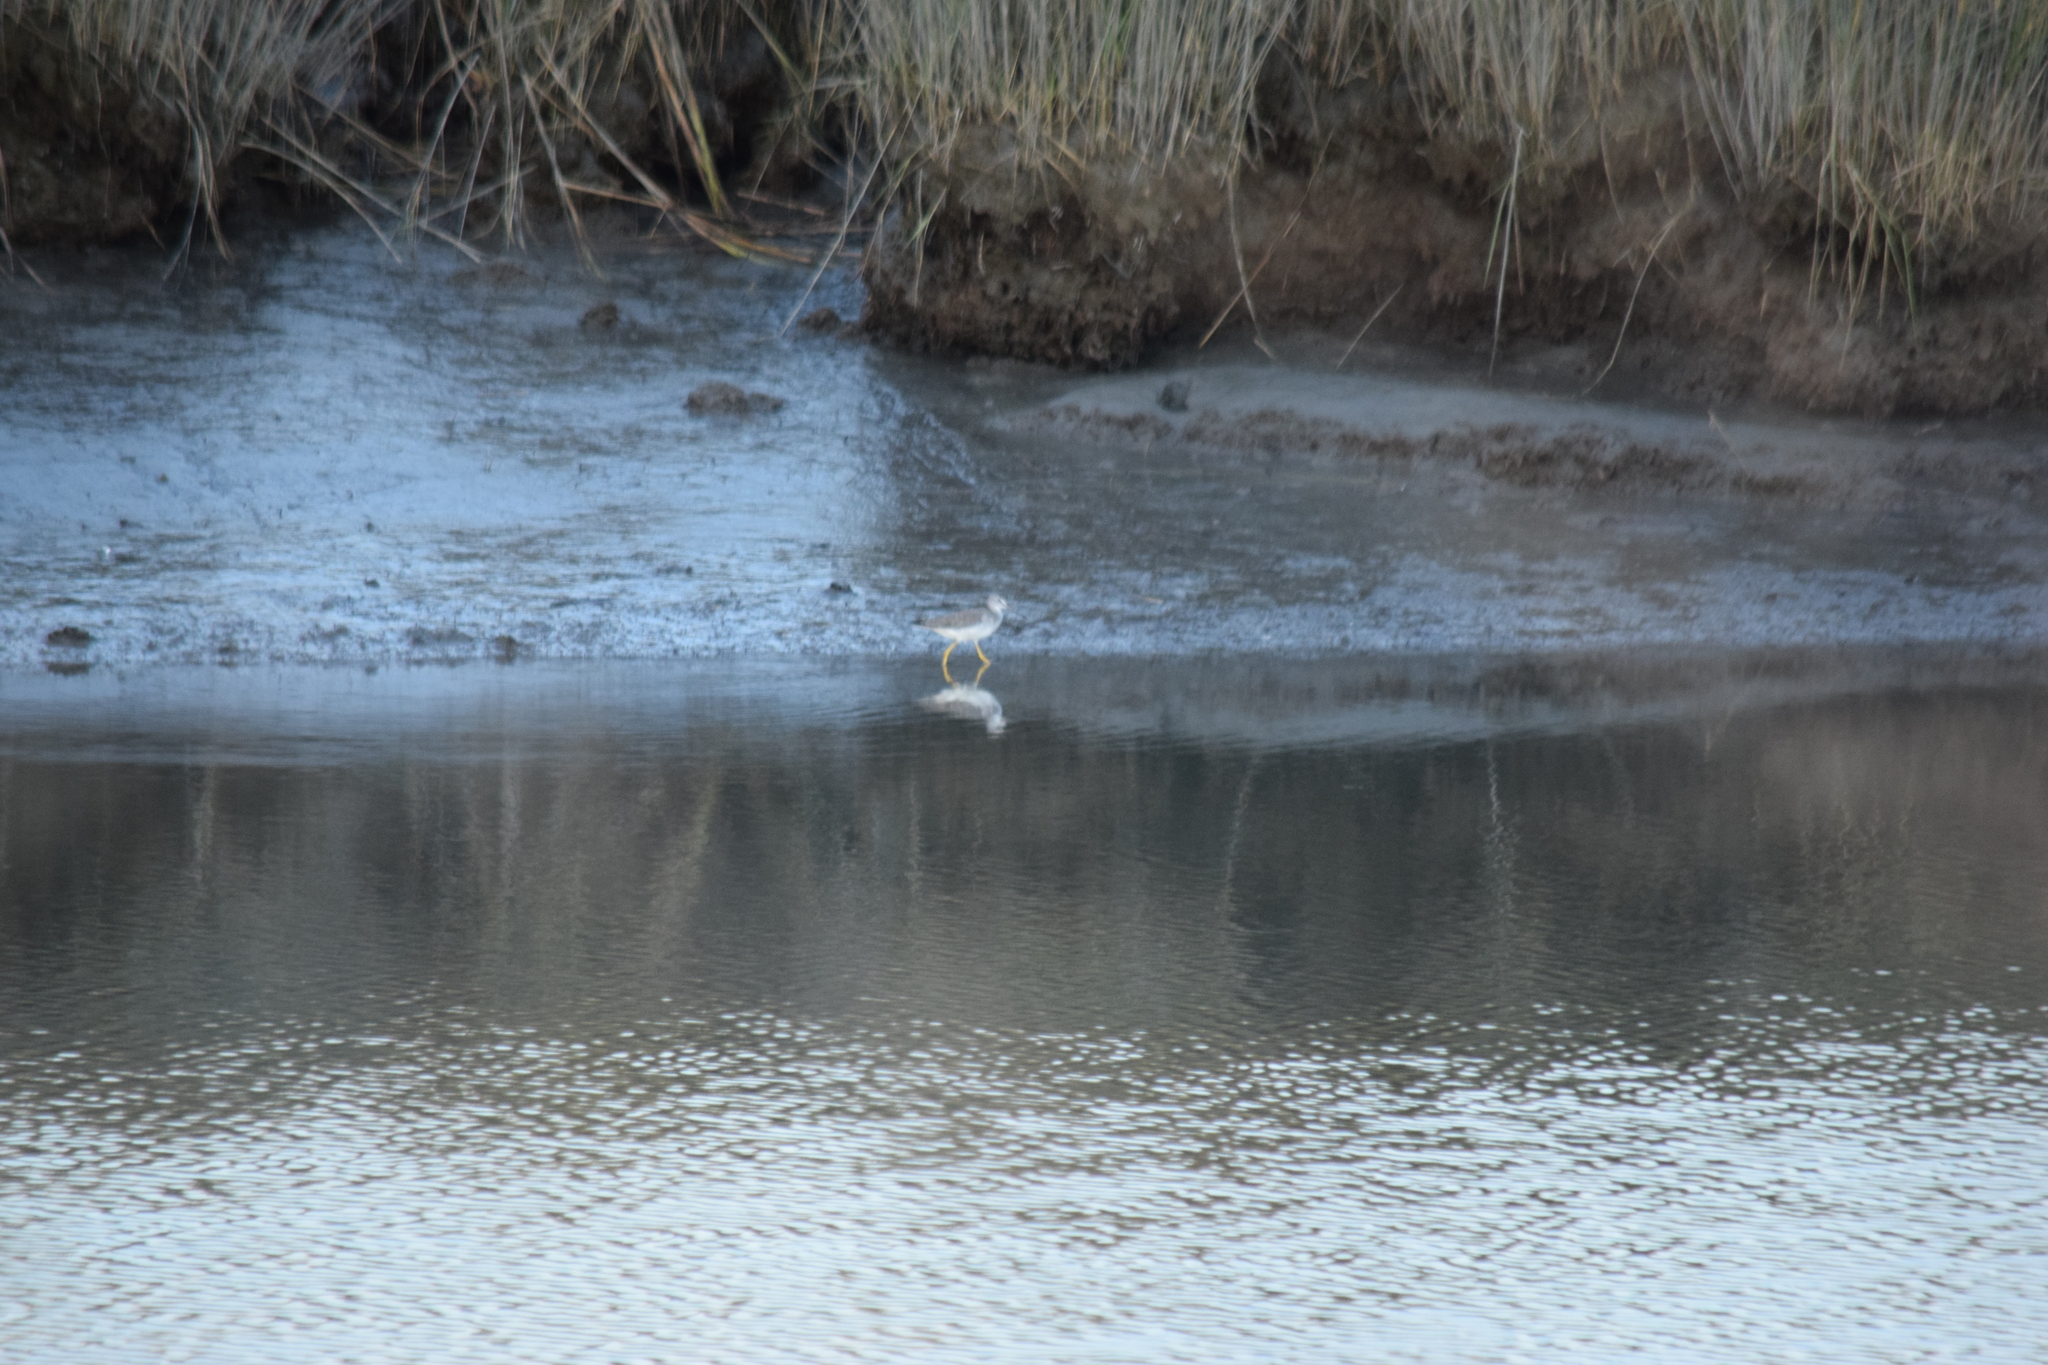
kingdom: Animalia
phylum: Chordata
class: Aves
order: Charadriiformes
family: Scolopacidae
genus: Tringa
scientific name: Tringa melanoleuca
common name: Greater yellowlegs
